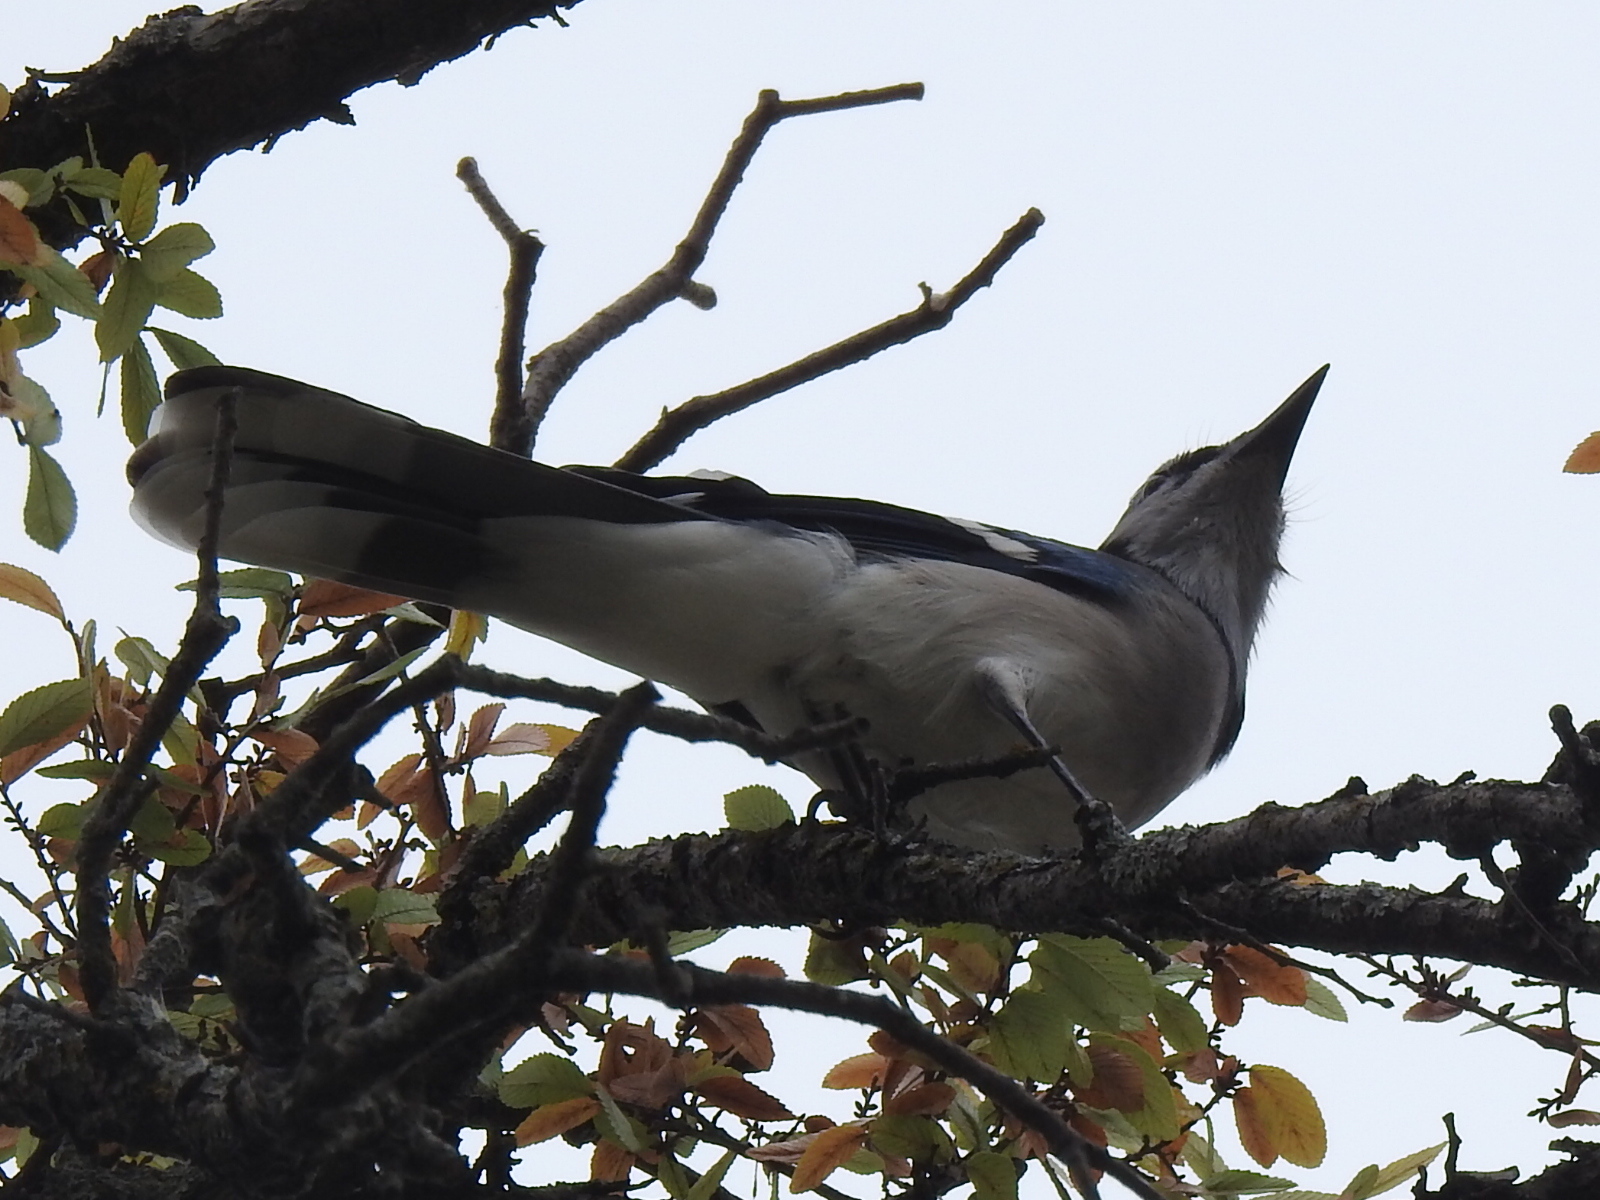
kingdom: Animalia
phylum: Chordata
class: Aves
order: Passeriformes
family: Corvidae
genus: Cyanocitta
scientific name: Cyanocitta cristata
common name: Blue jay
